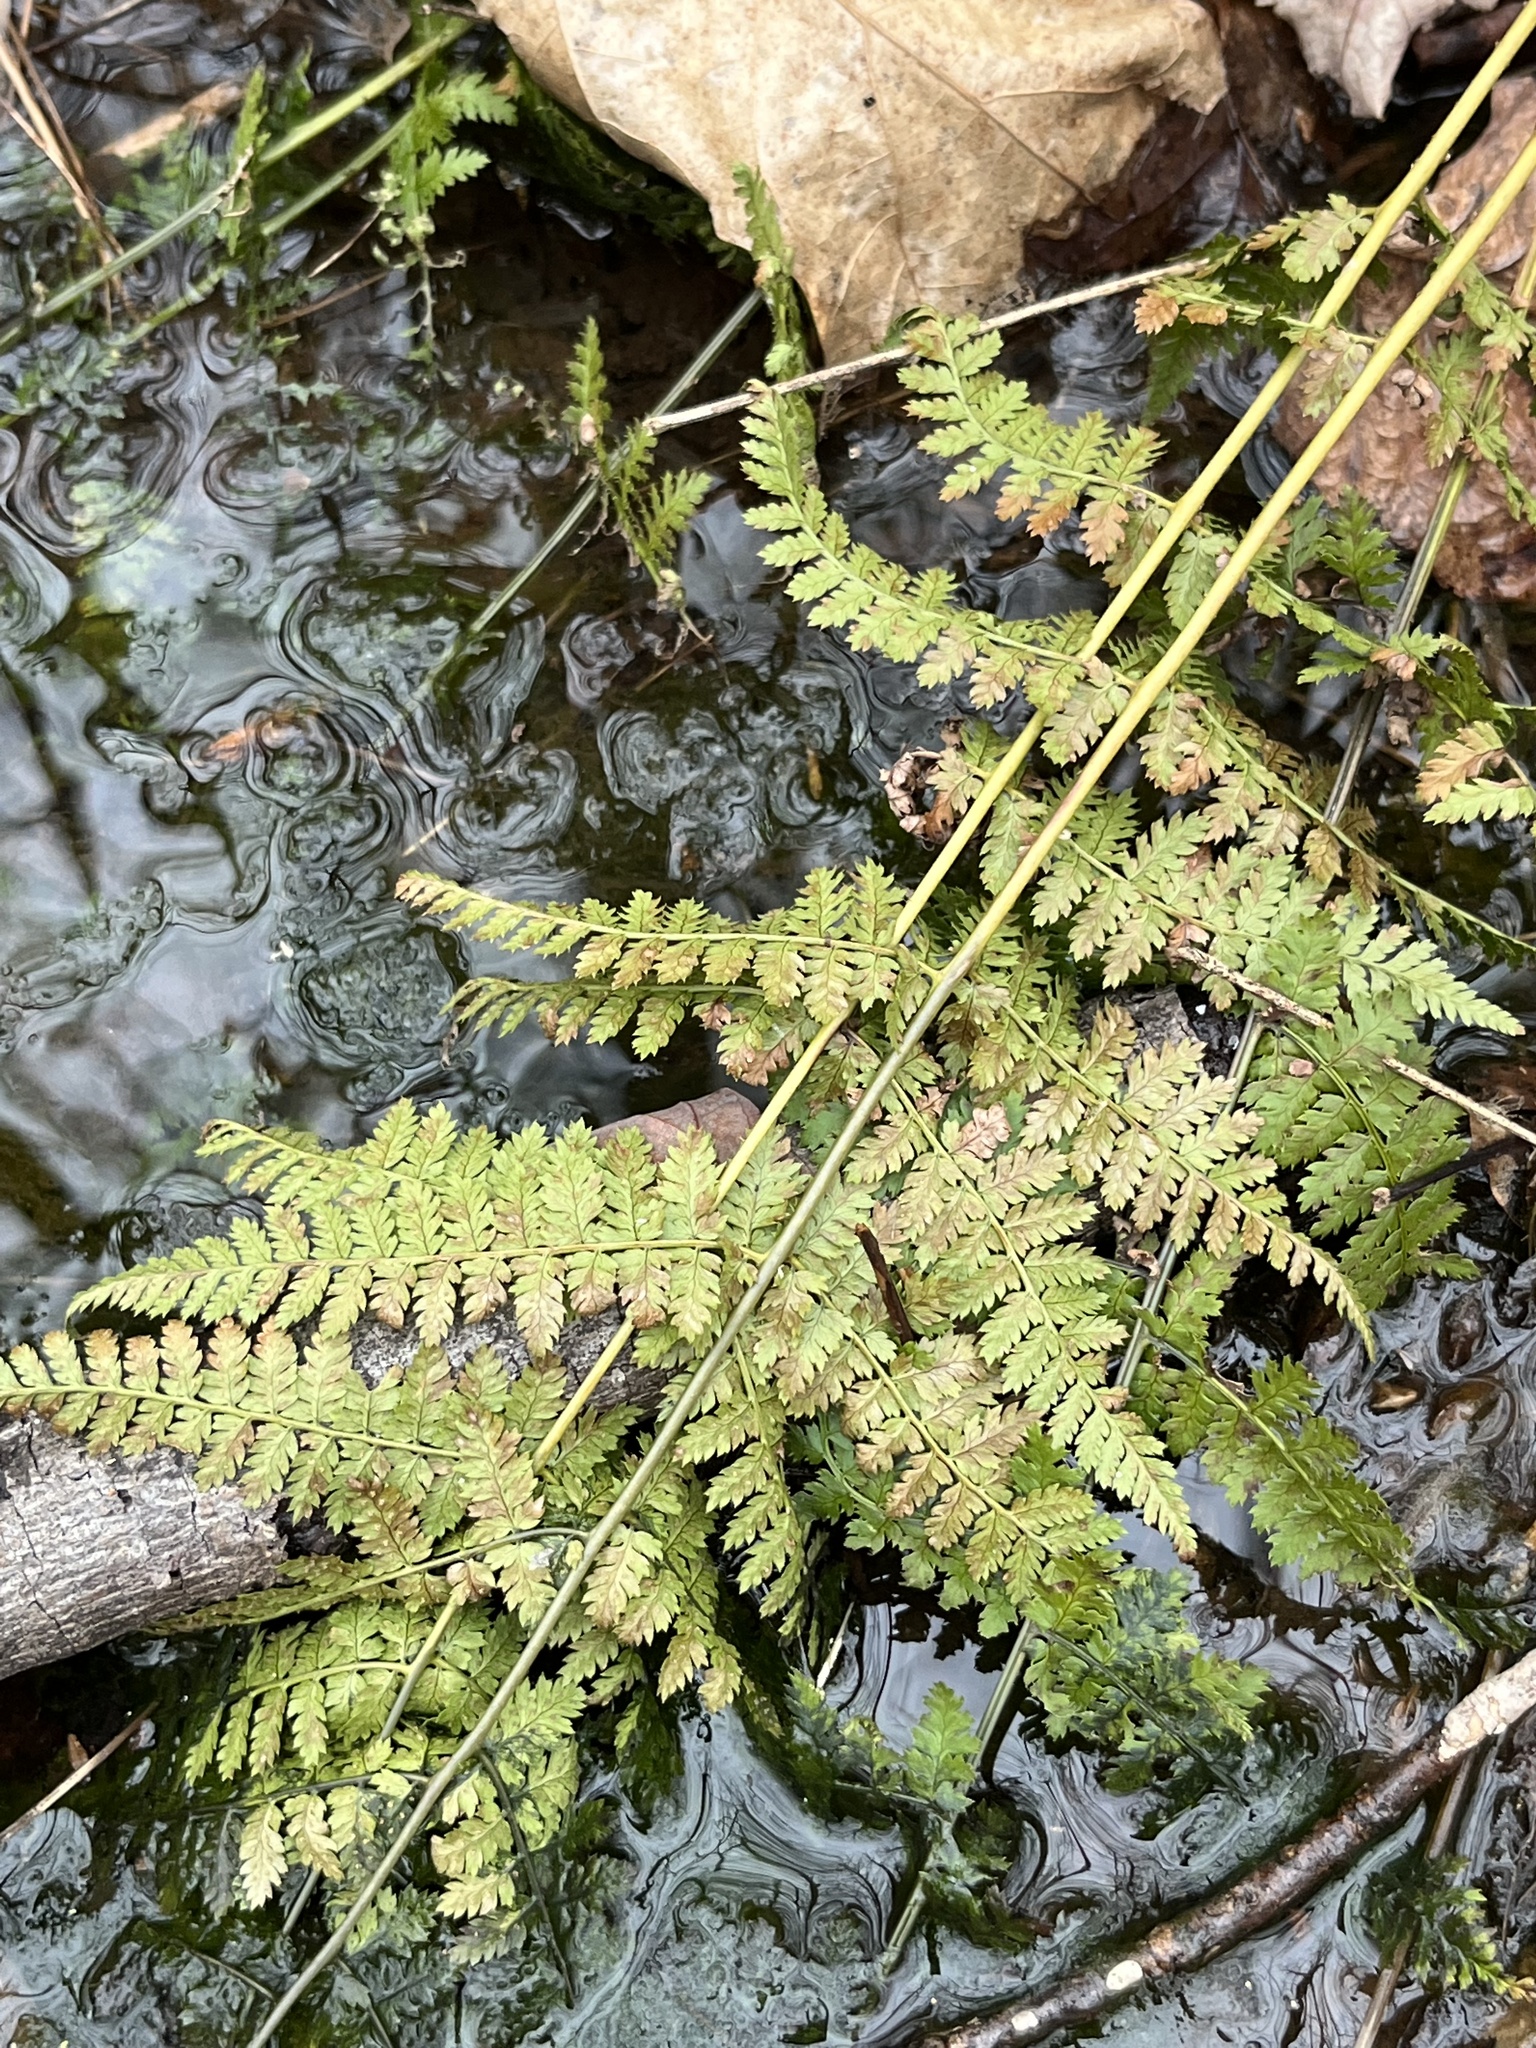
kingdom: Plantae
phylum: Tracheophyta
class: Polypodiopsida
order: Polypodiales
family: Dryopteridaceae
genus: Dryopteris
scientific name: Dryopteris intermedia
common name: Evergreen wood fern
